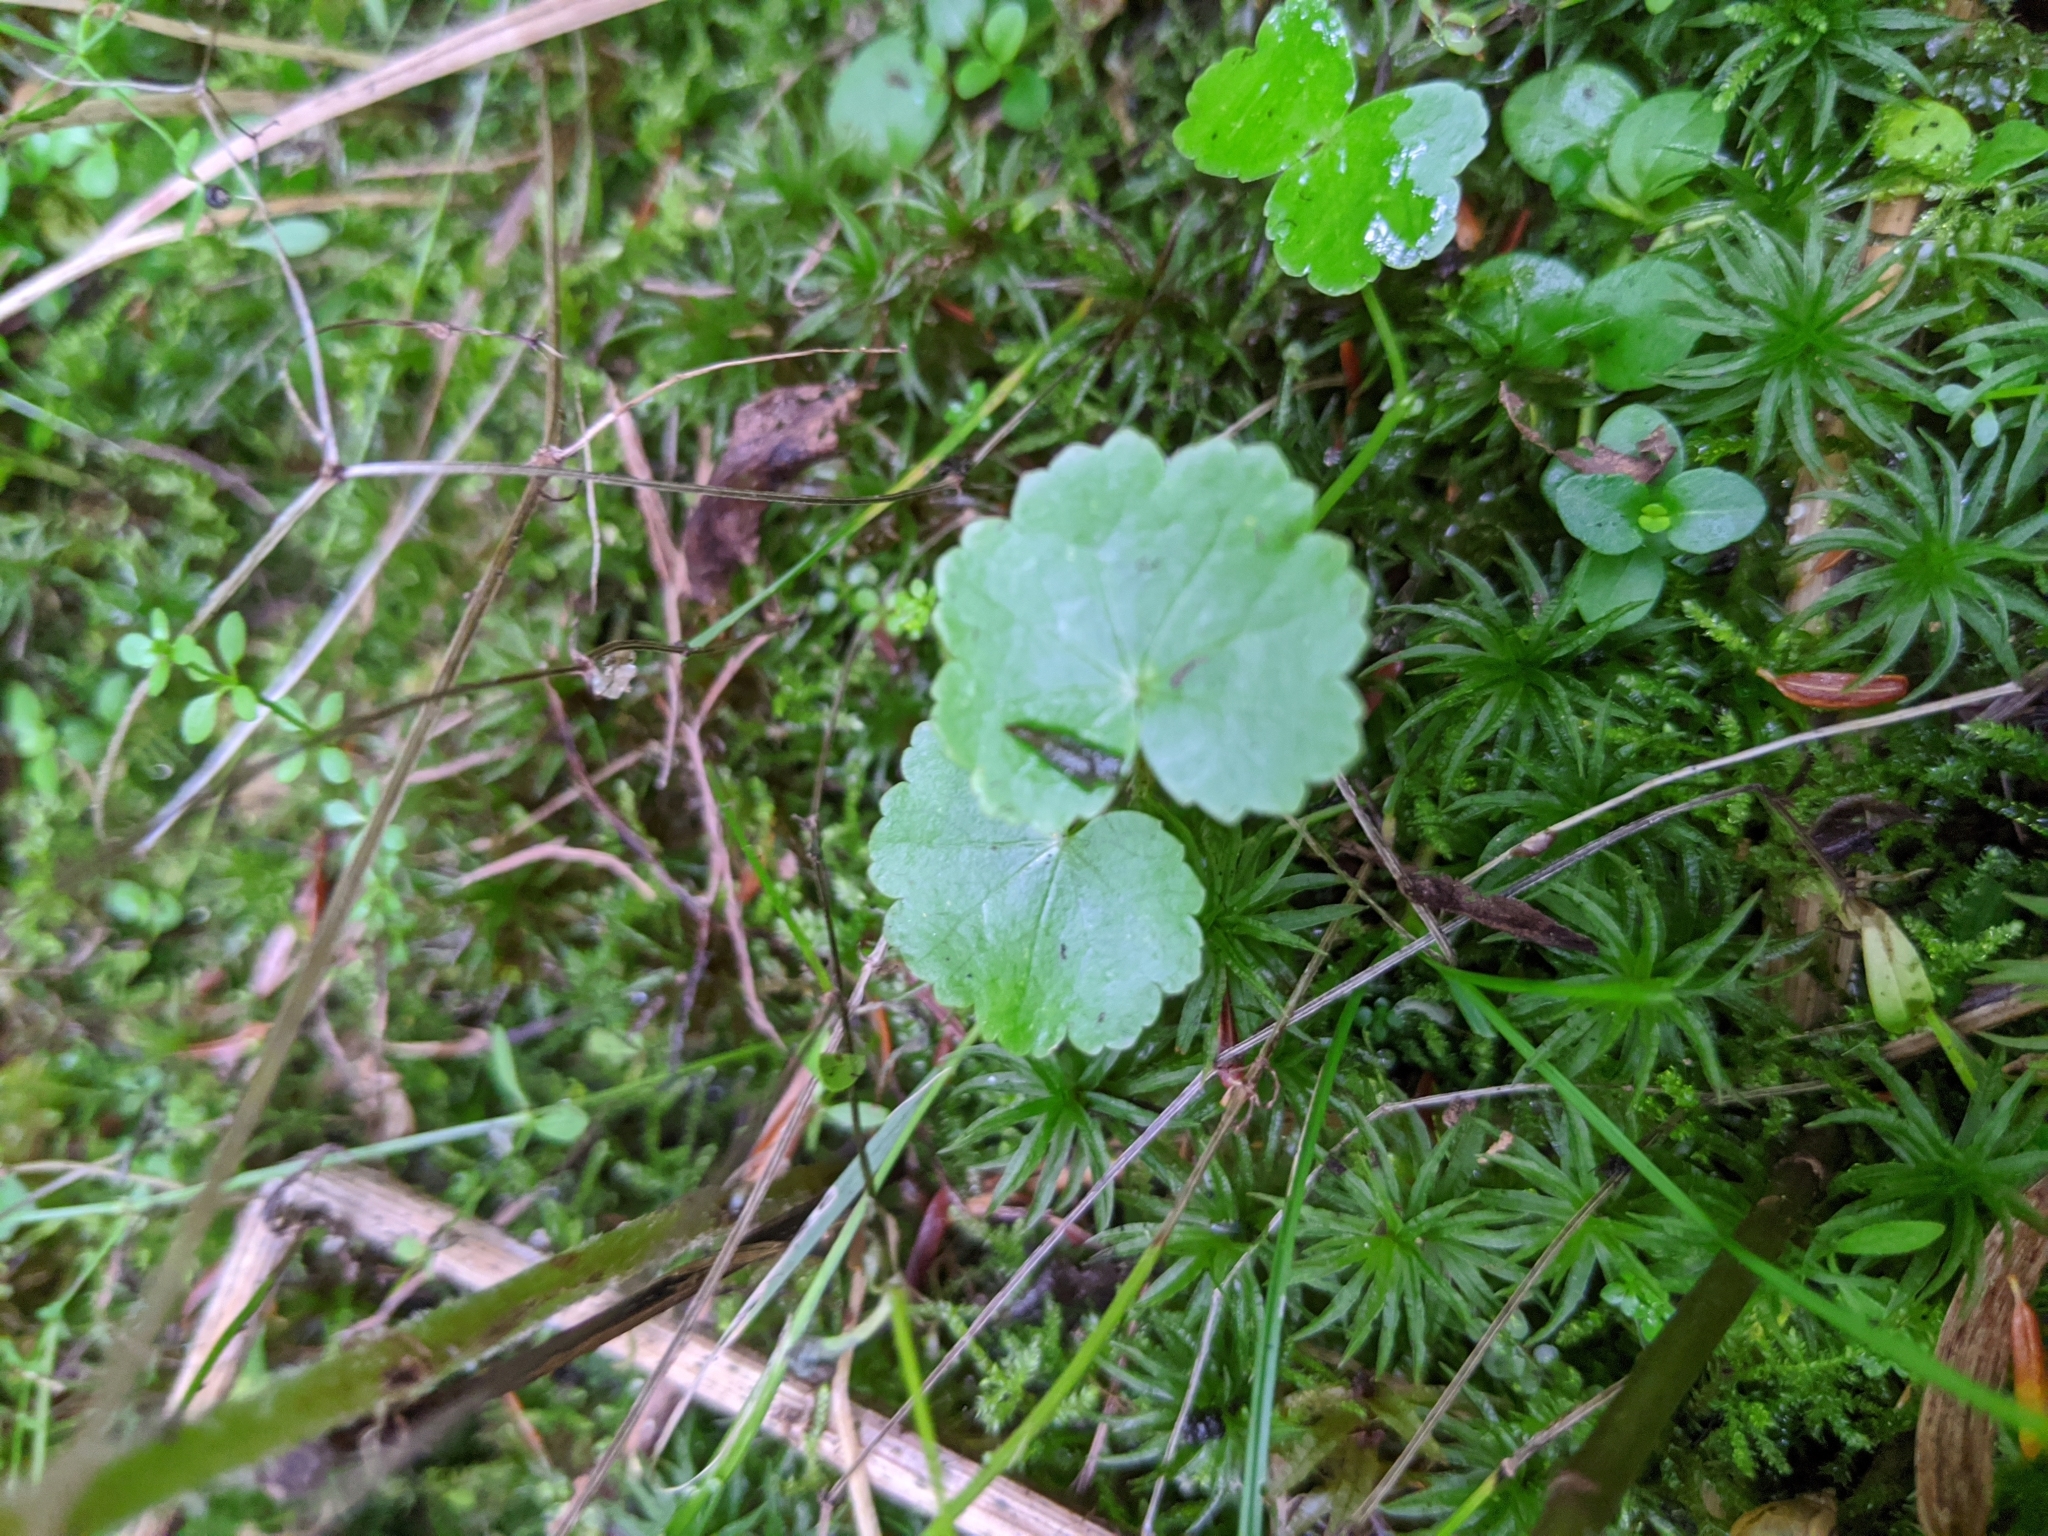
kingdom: Plantae
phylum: Tracheophyta
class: Magnoliopsida
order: Apiales
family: Araliaceae
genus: Hydrocotyle
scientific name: Hydrocotyle americana
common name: American water-pennywort
